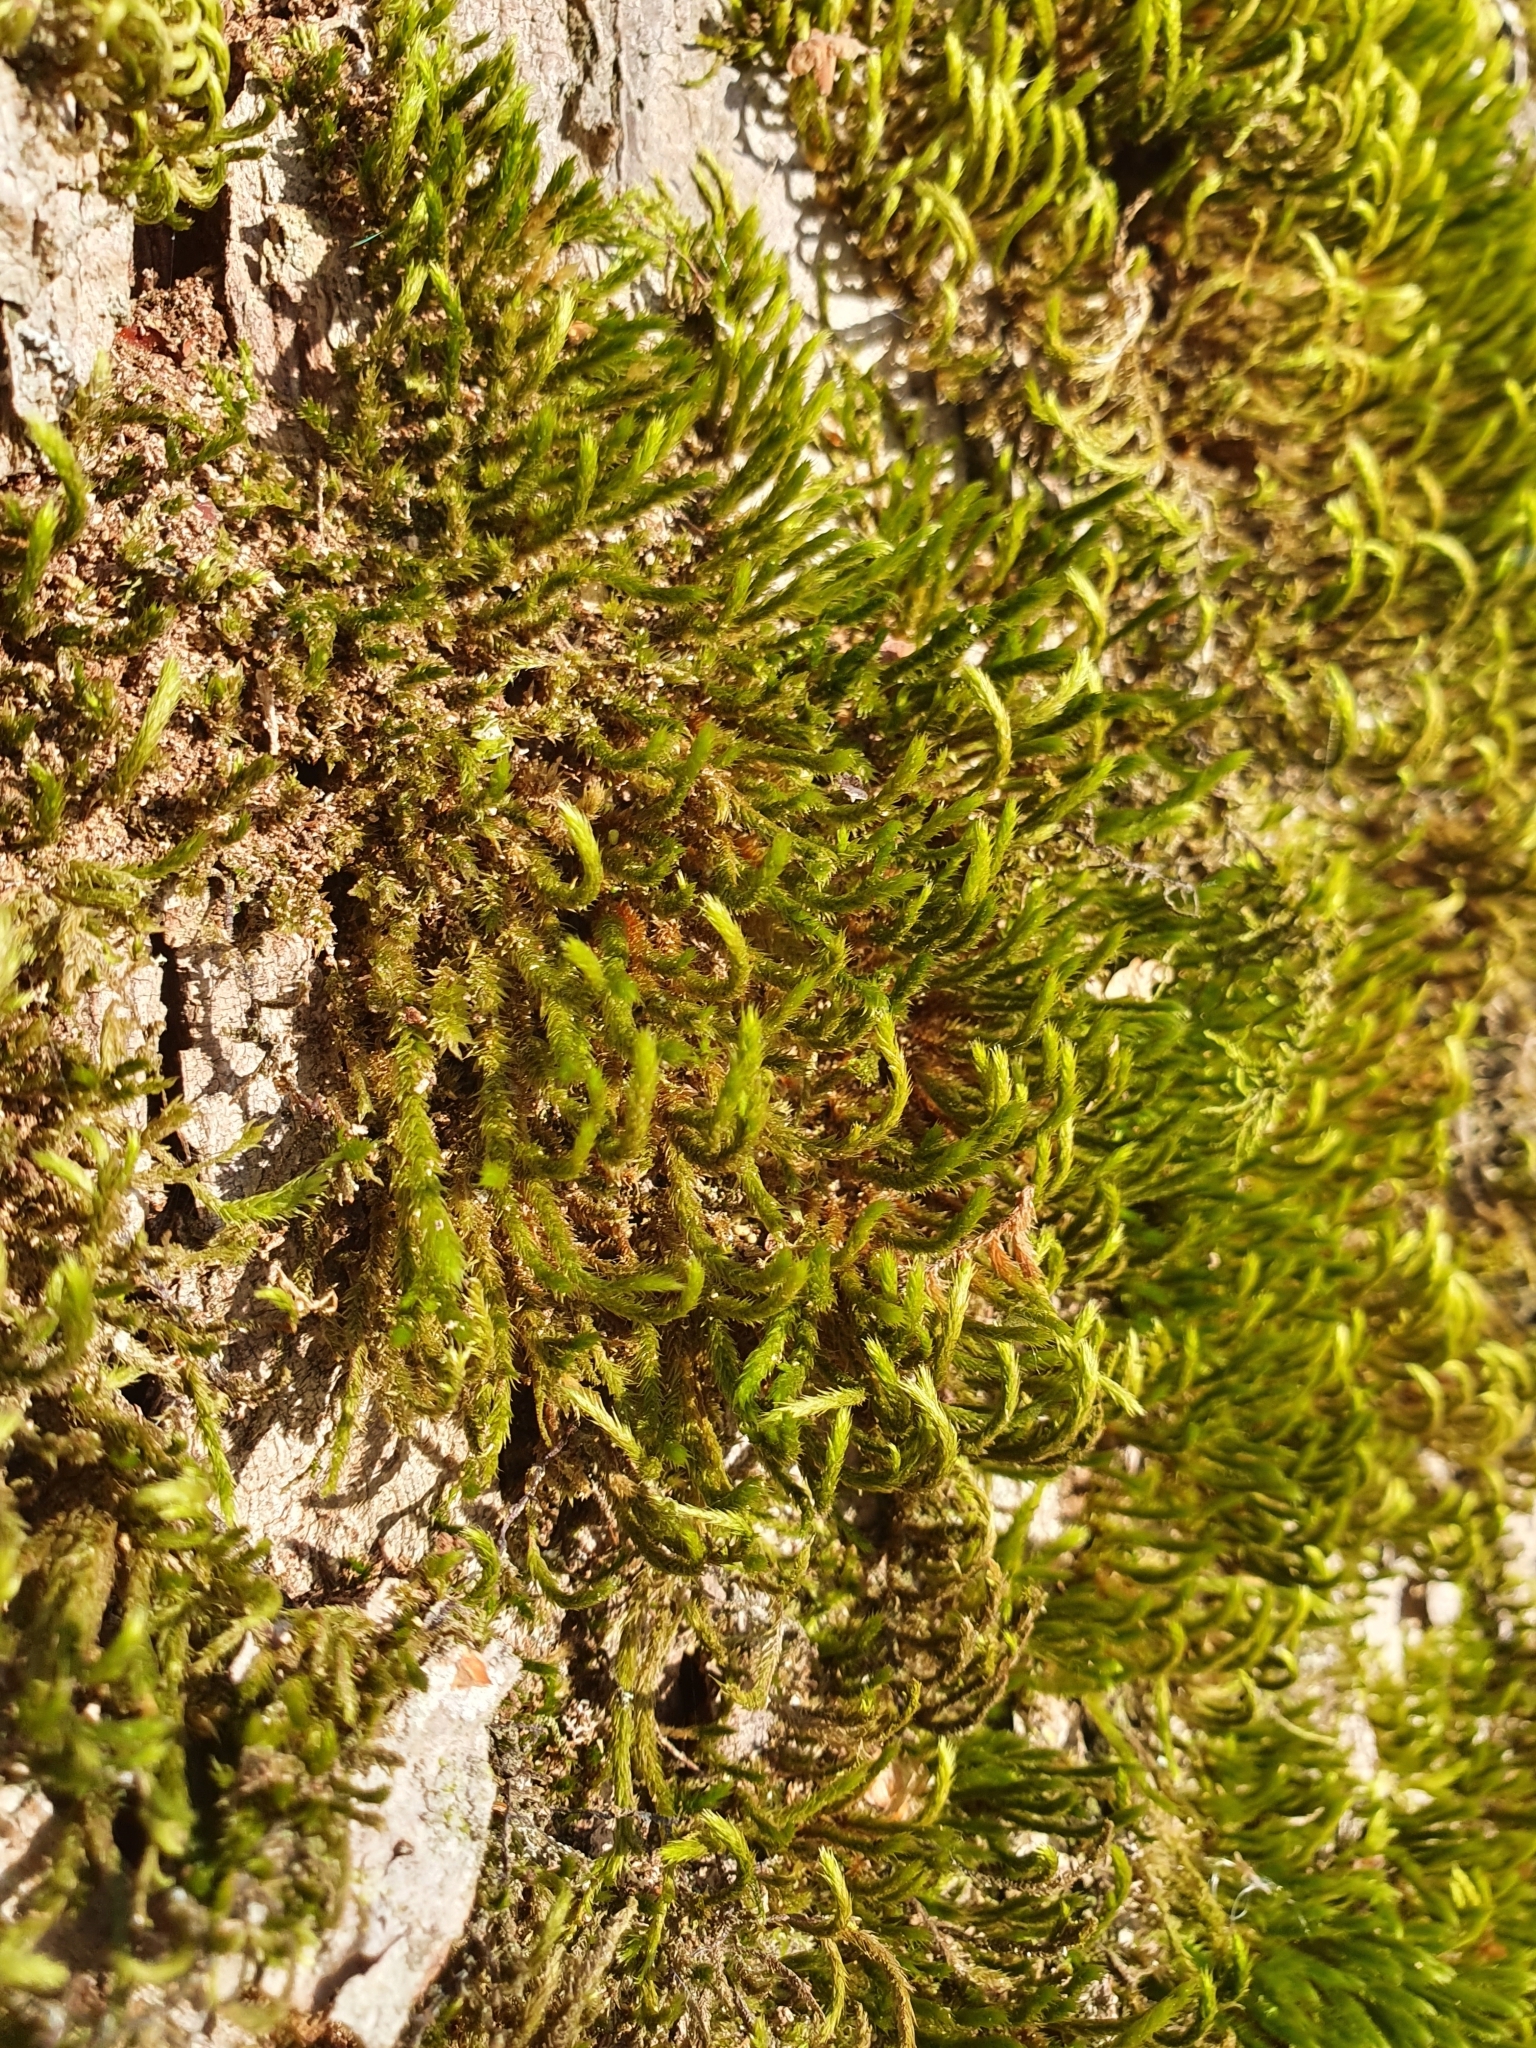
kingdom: Plantae
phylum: Bryophyta
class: Bryopsida
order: Hypnales
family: Leucodontaceae
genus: Leucodon
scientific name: Leucodon sciuroides
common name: Squirrel-tail moss
